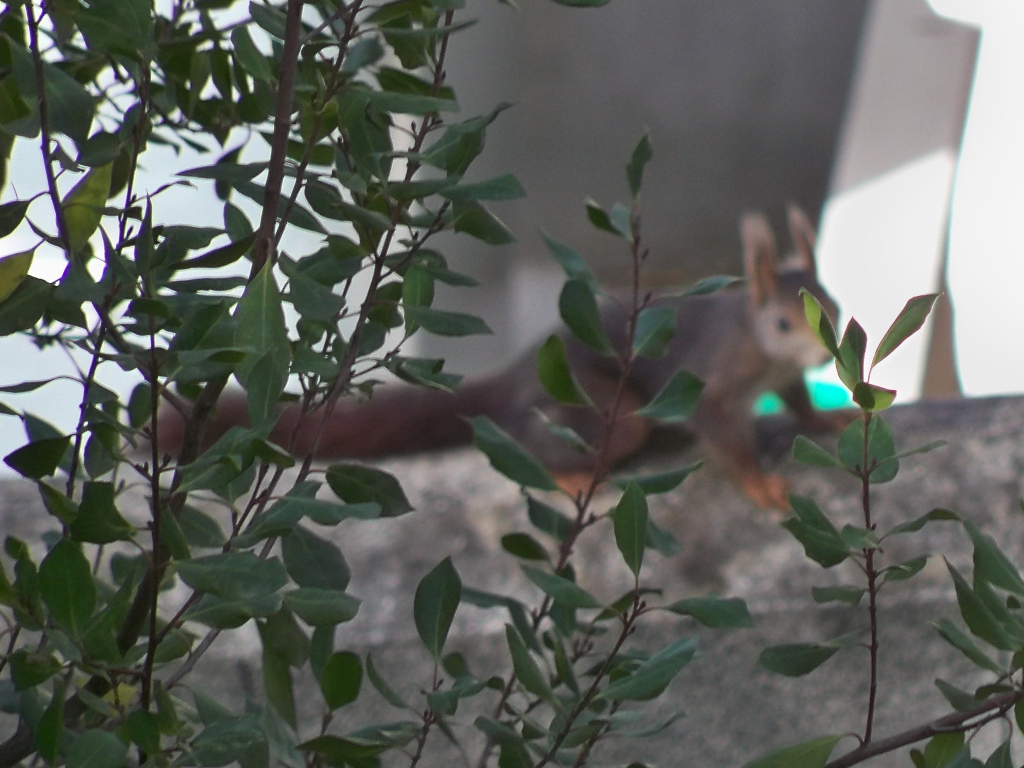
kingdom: Animalia
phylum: Chordata
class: Mammalia
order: Rodentia
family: Sciuridae
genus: Sciurus
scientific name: Sciurus vulgaris
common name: Eurasian red squirrel
